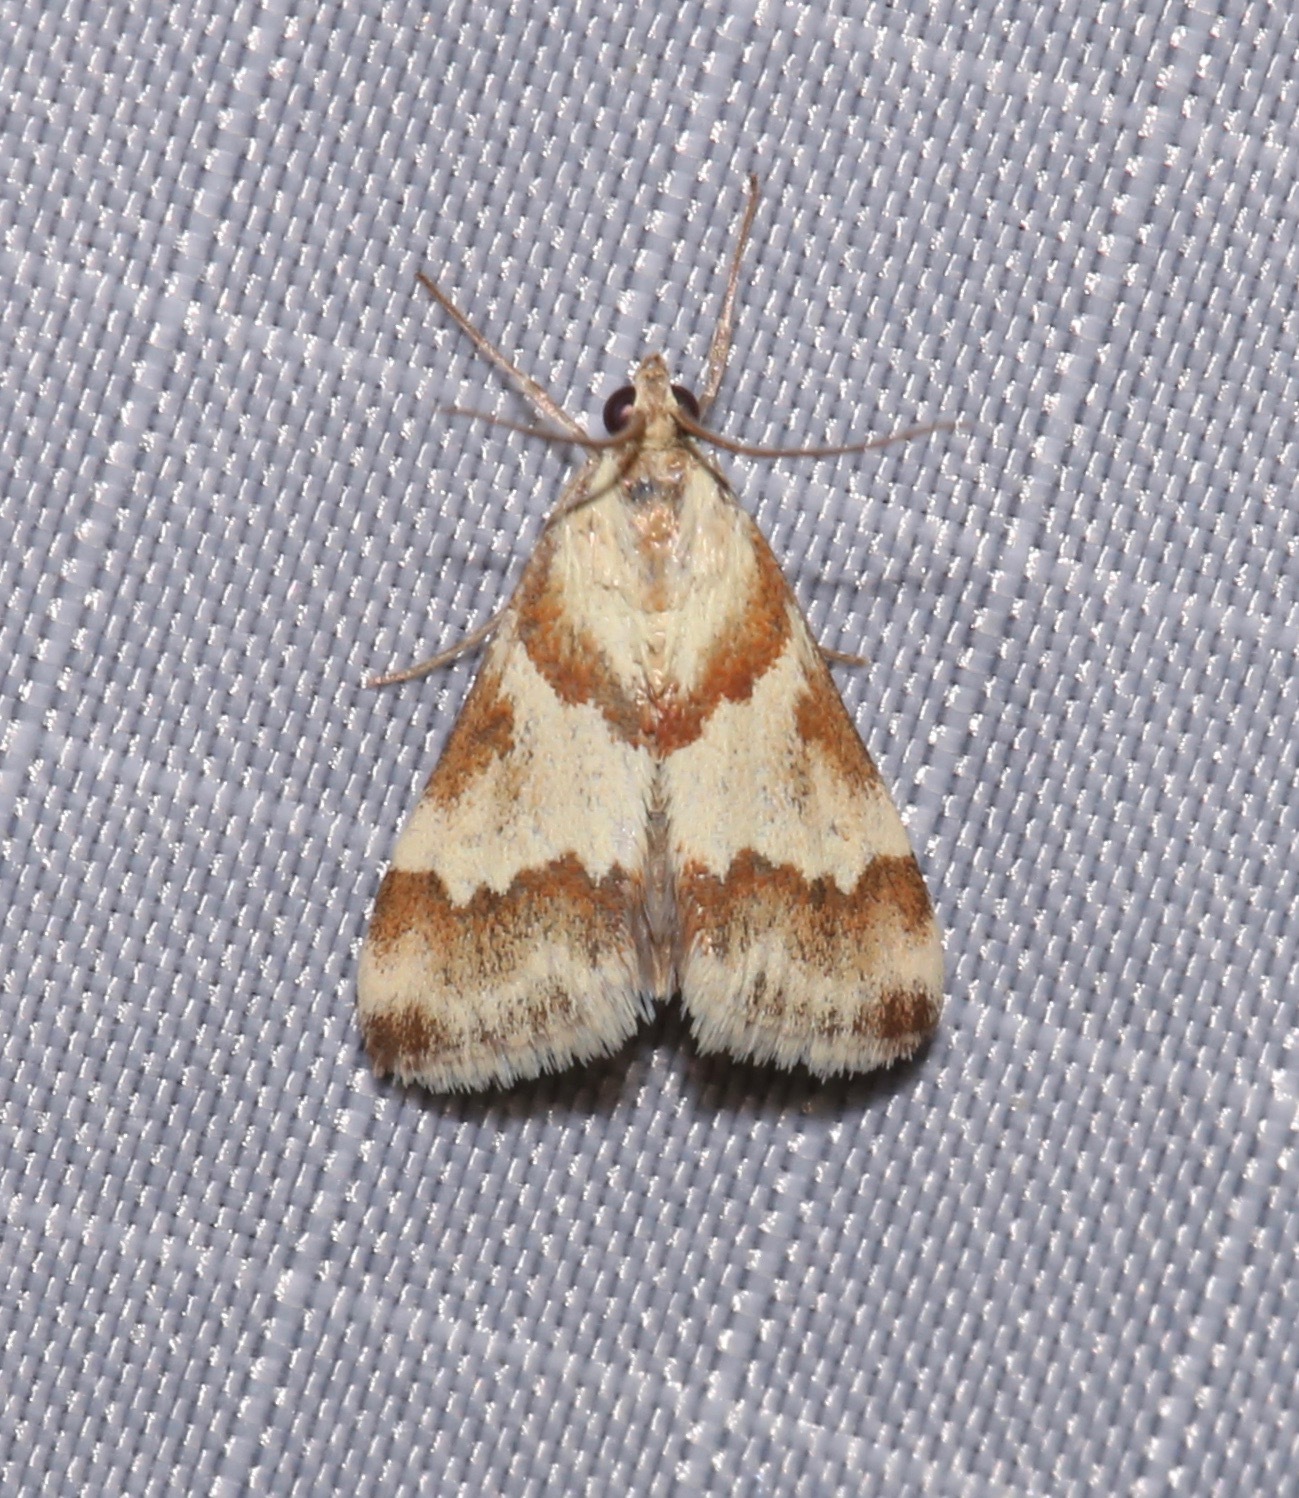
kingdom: Animalia
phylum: Arthropoda
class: Insecta
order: Lepidoptera
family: Crambidae
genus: Noctuelia
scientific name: Noctuelia Mimoschinia rufofascialis
